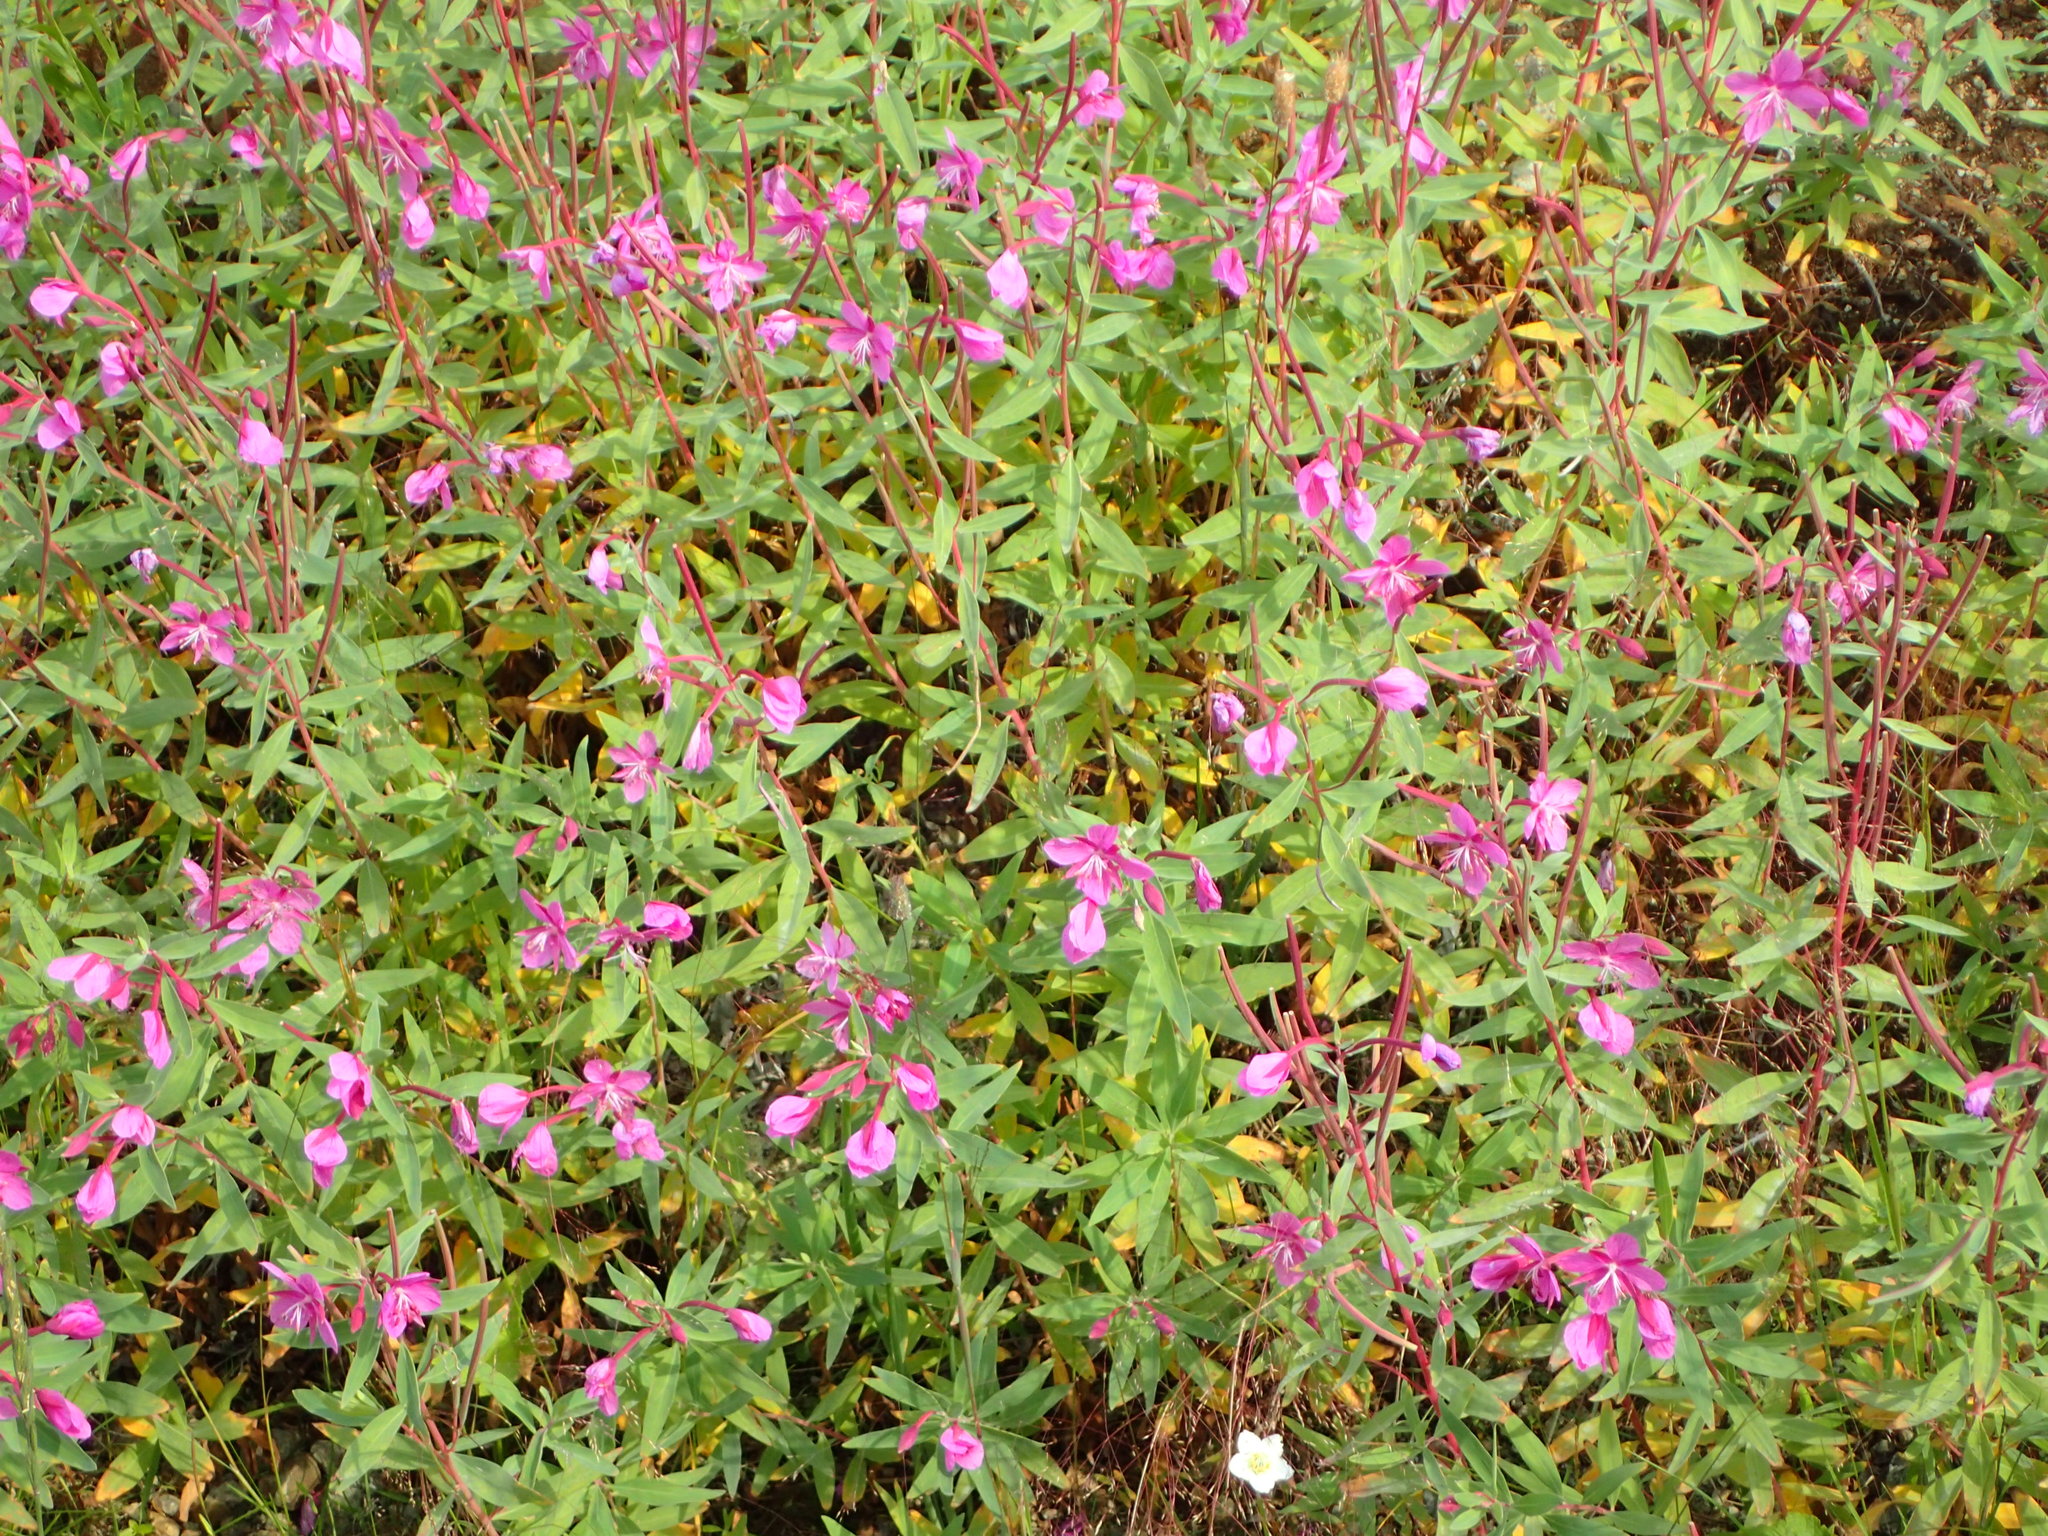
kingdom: Plantae
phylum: Tracheophyta
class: Magnoliopsida
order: Myrtales
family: Onagraceae
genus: Chamaenerion
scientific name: Chamaenerion latifolium
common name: Dwarf fireweed
